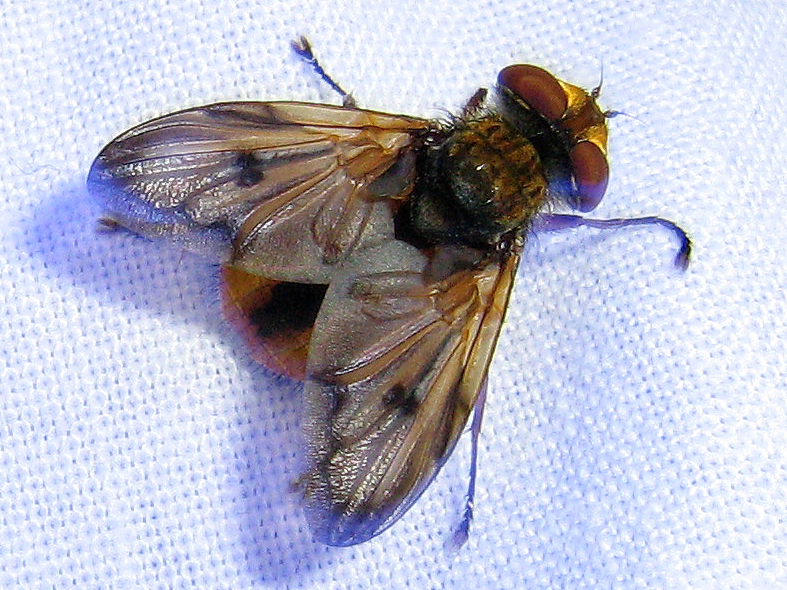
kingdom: Animalia
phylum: Arthropoda
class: Insecta
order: Diptera
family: Tachinidae
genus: Ectophasia
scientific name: Ectophasia crassipennis
